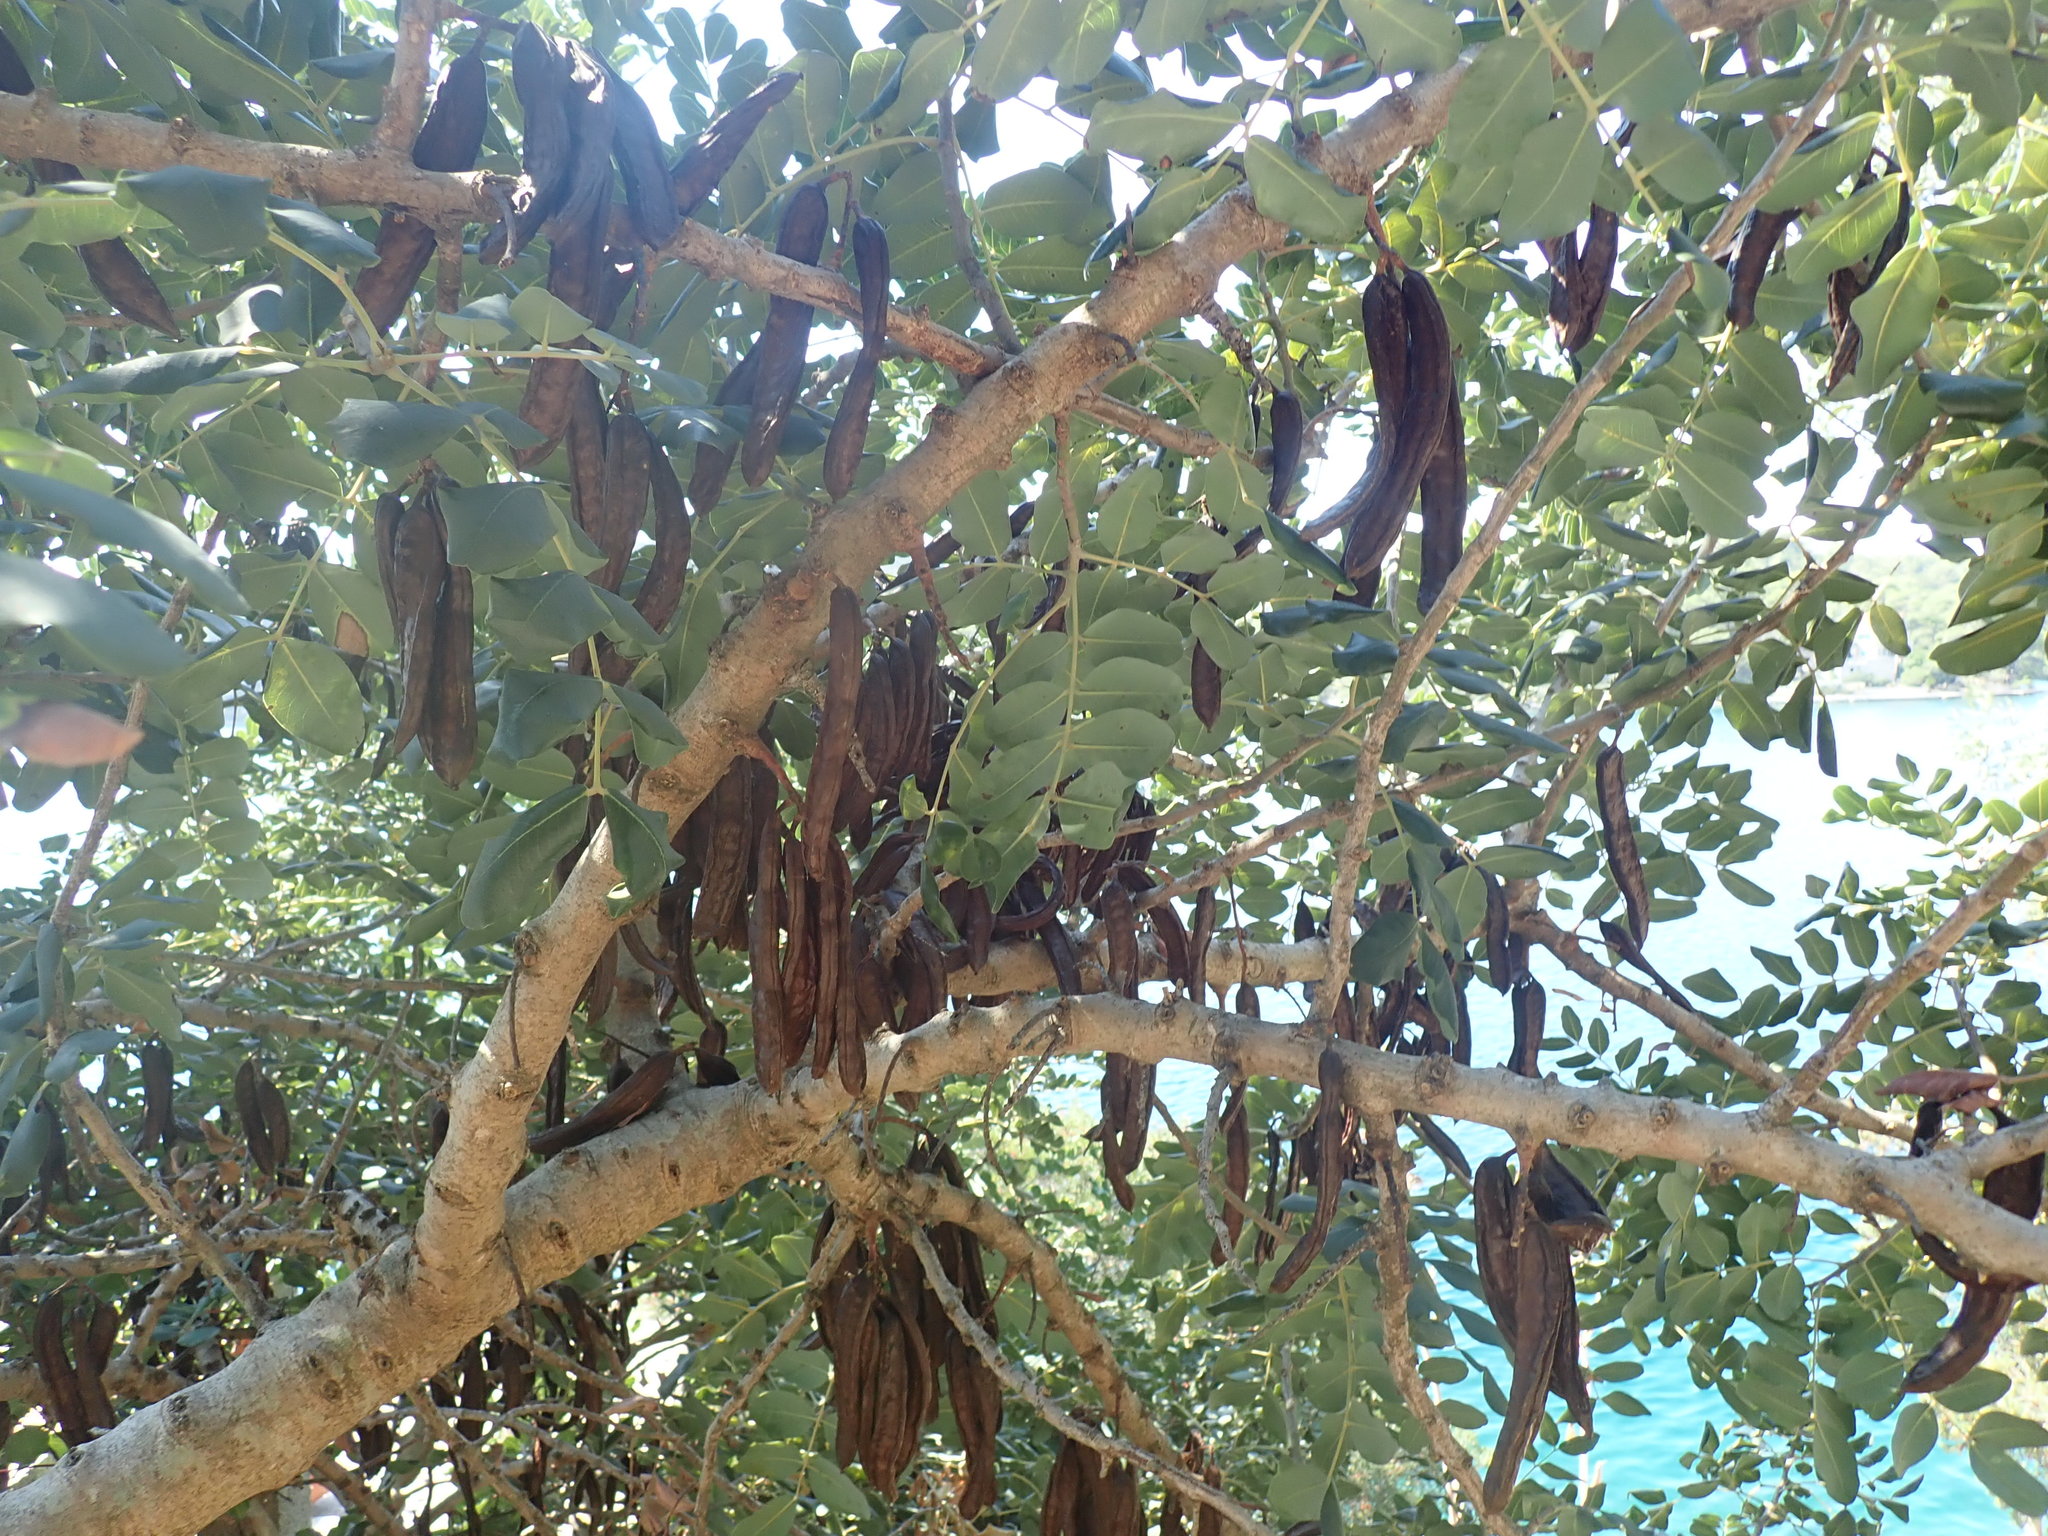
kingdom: Plantae
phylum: Tracheophyta
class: Magnoliopsida
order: Fabales
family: Fabaceae
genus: Ceratonia
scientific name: Ceratonia siliqua
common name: Carob
